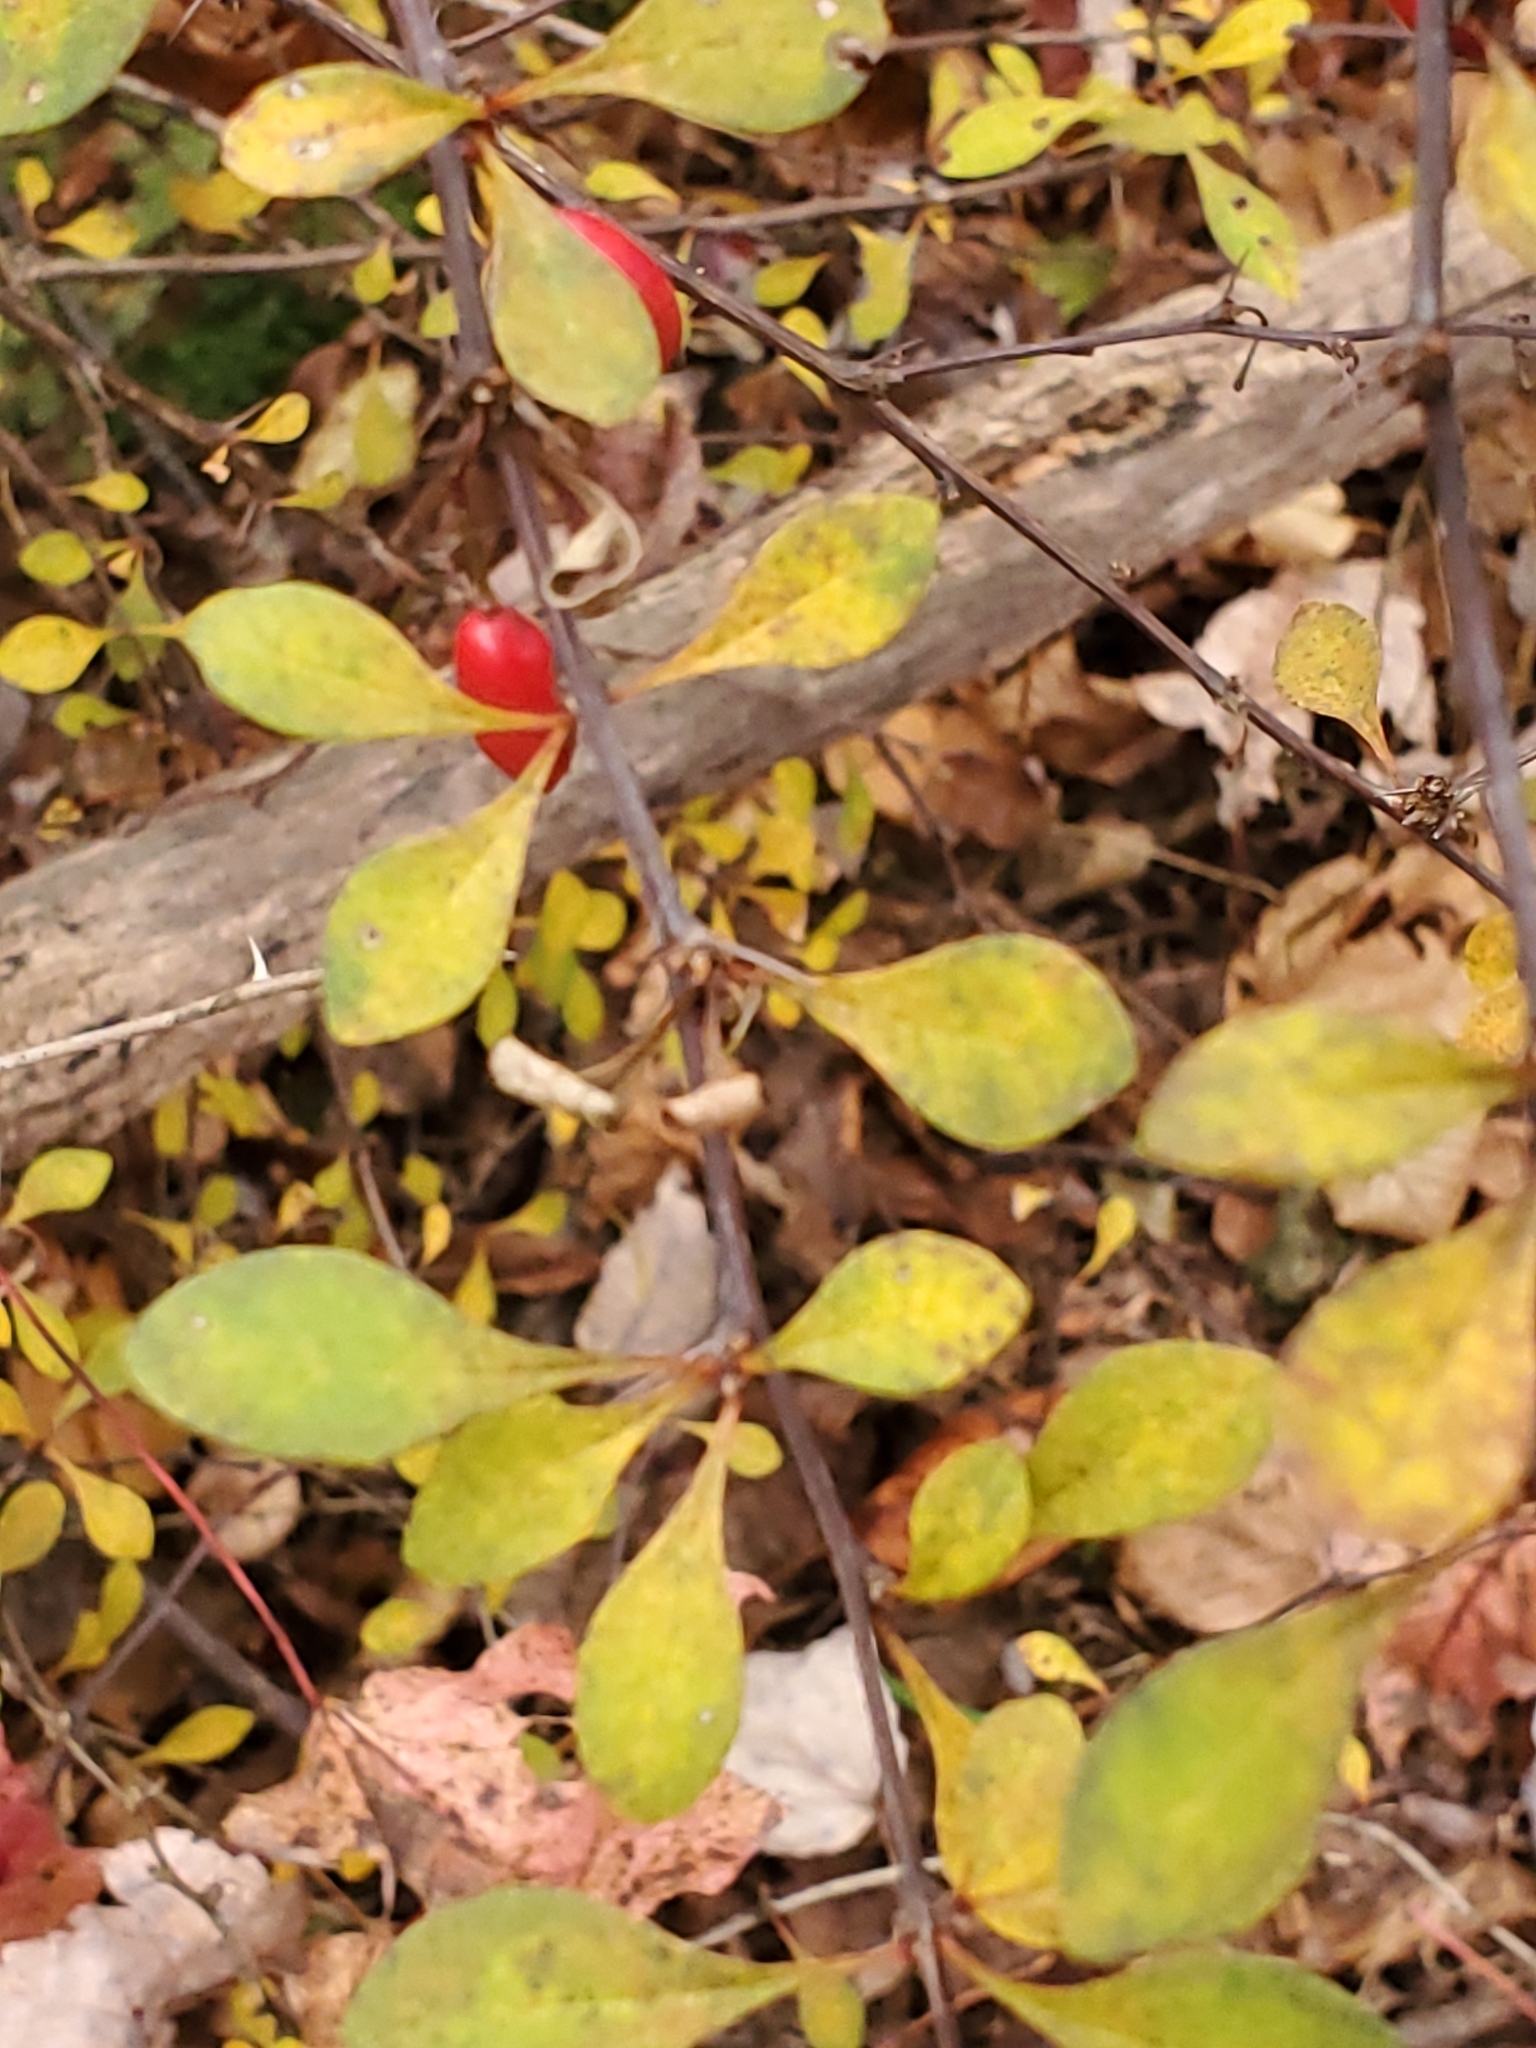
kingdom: Plantae
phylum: Tracheophyta
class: Magnoliopsida
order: Ranunculales
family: Berberidaceae
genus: Berberis
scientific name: Berberis thunbergii
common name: Japanese barberry
